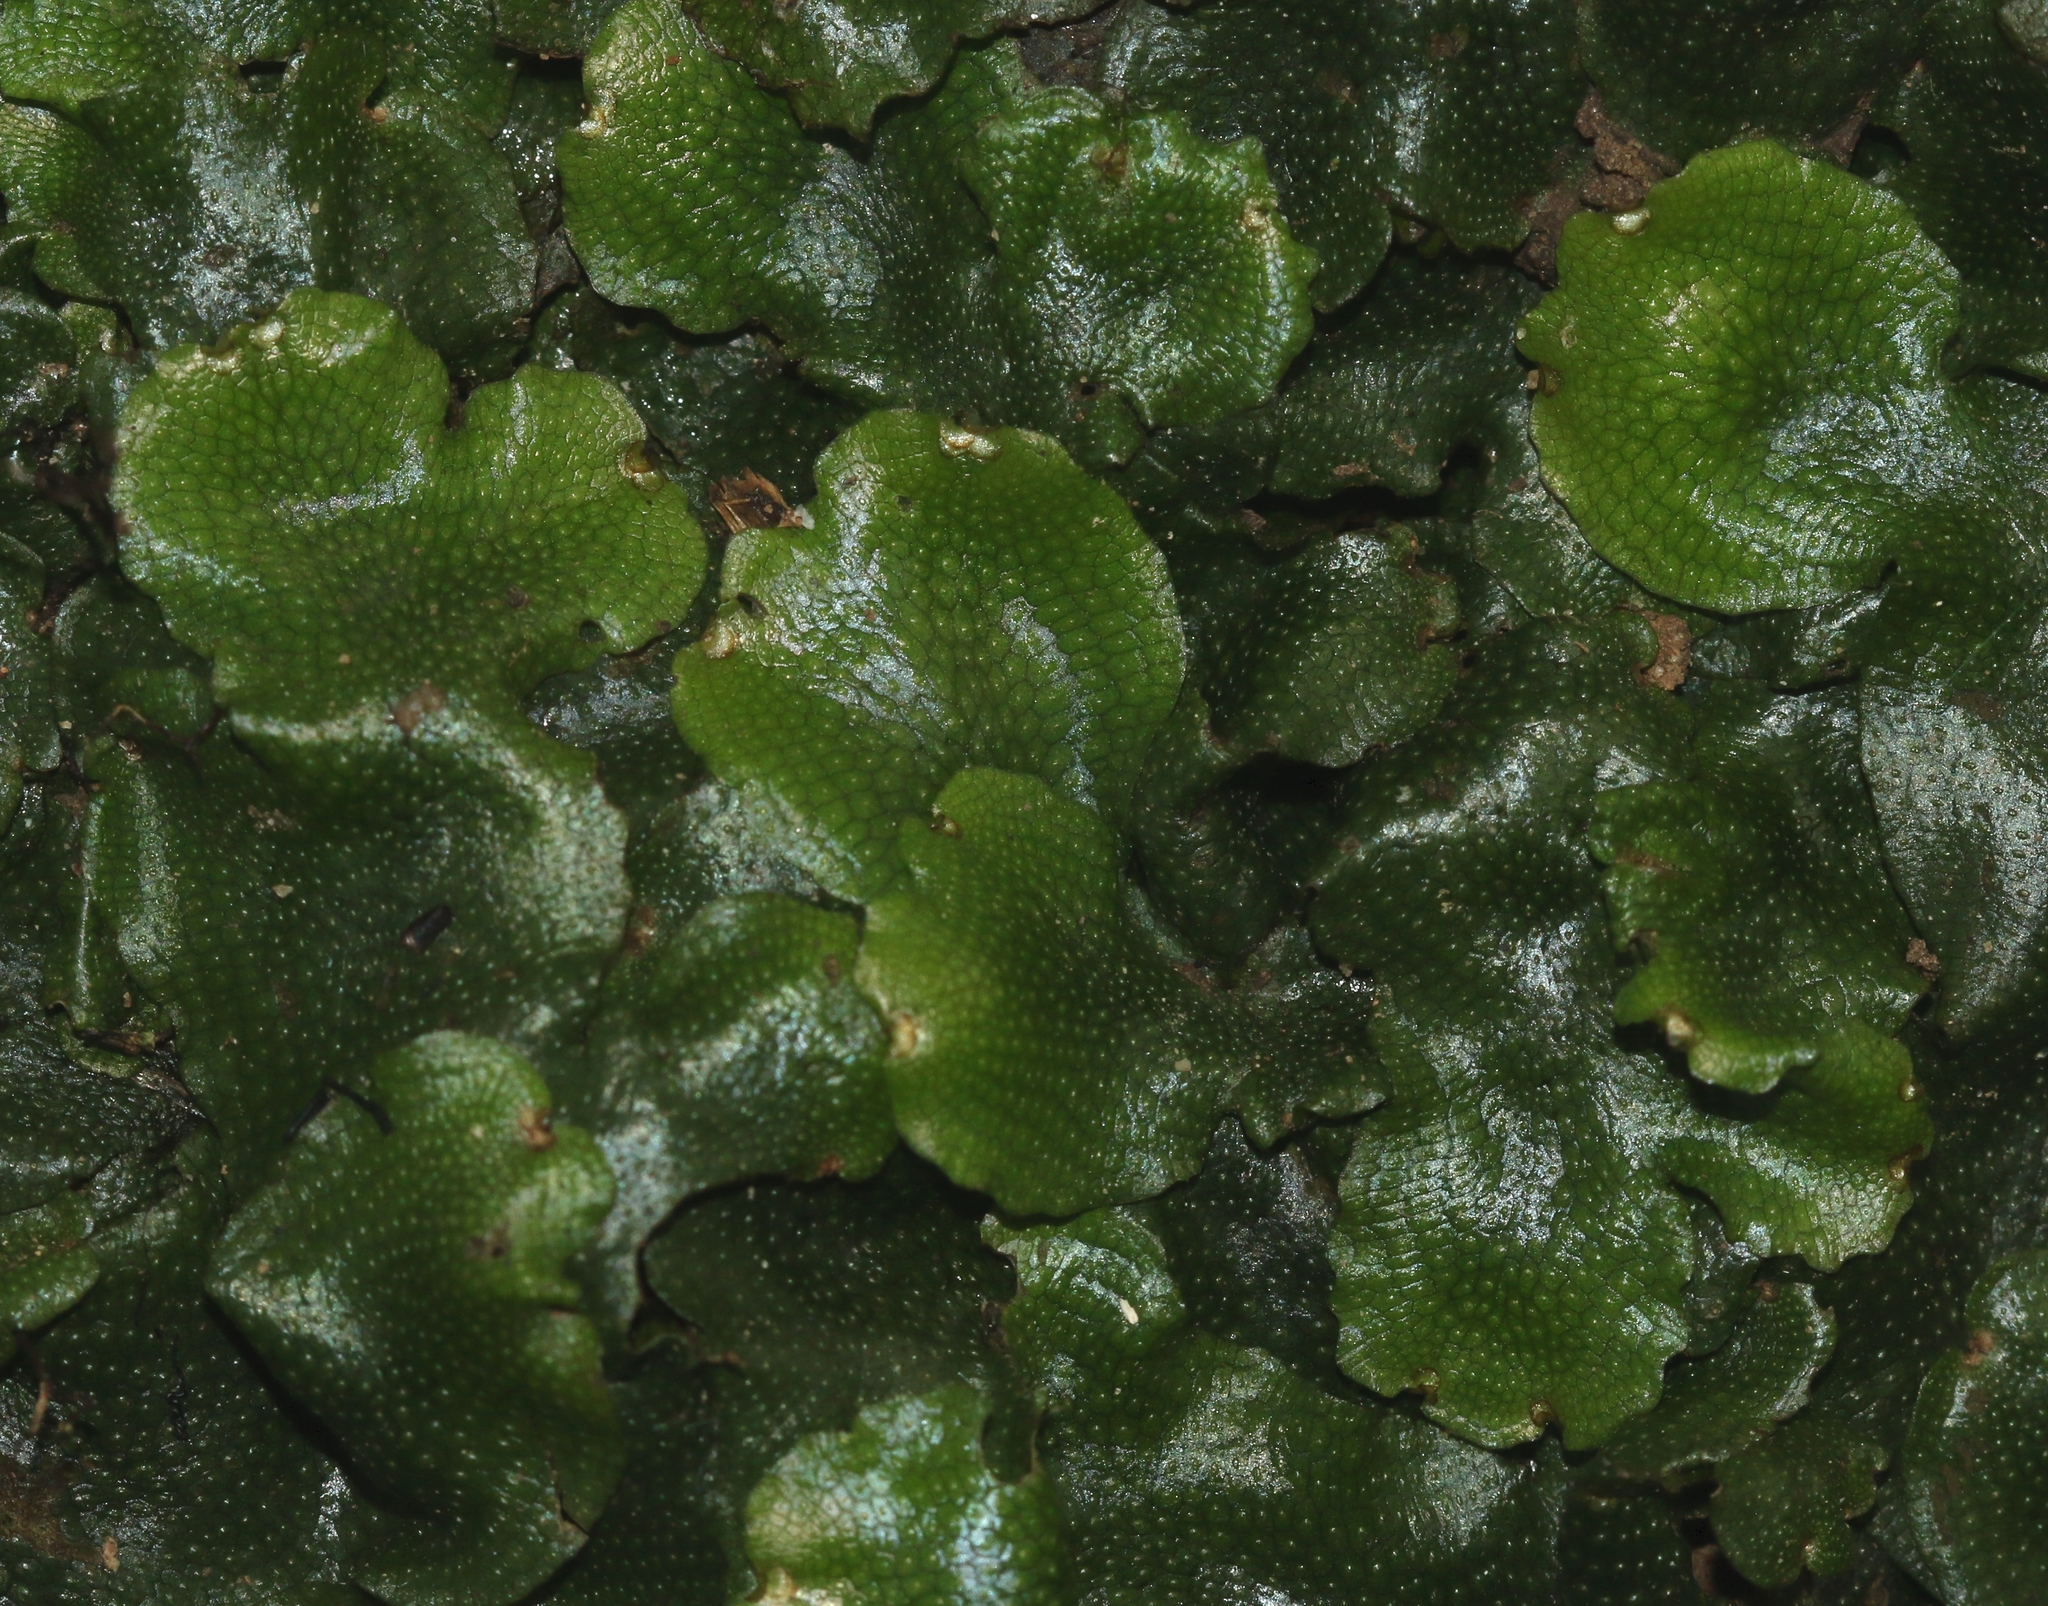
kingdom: Plantae
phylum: Marchantiophyta
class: Marchantiopsida
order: Marchantiales
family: Conocephalaceae
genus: Conocephalum
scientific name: Conocephalum conicum
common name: Great scented liverwort
